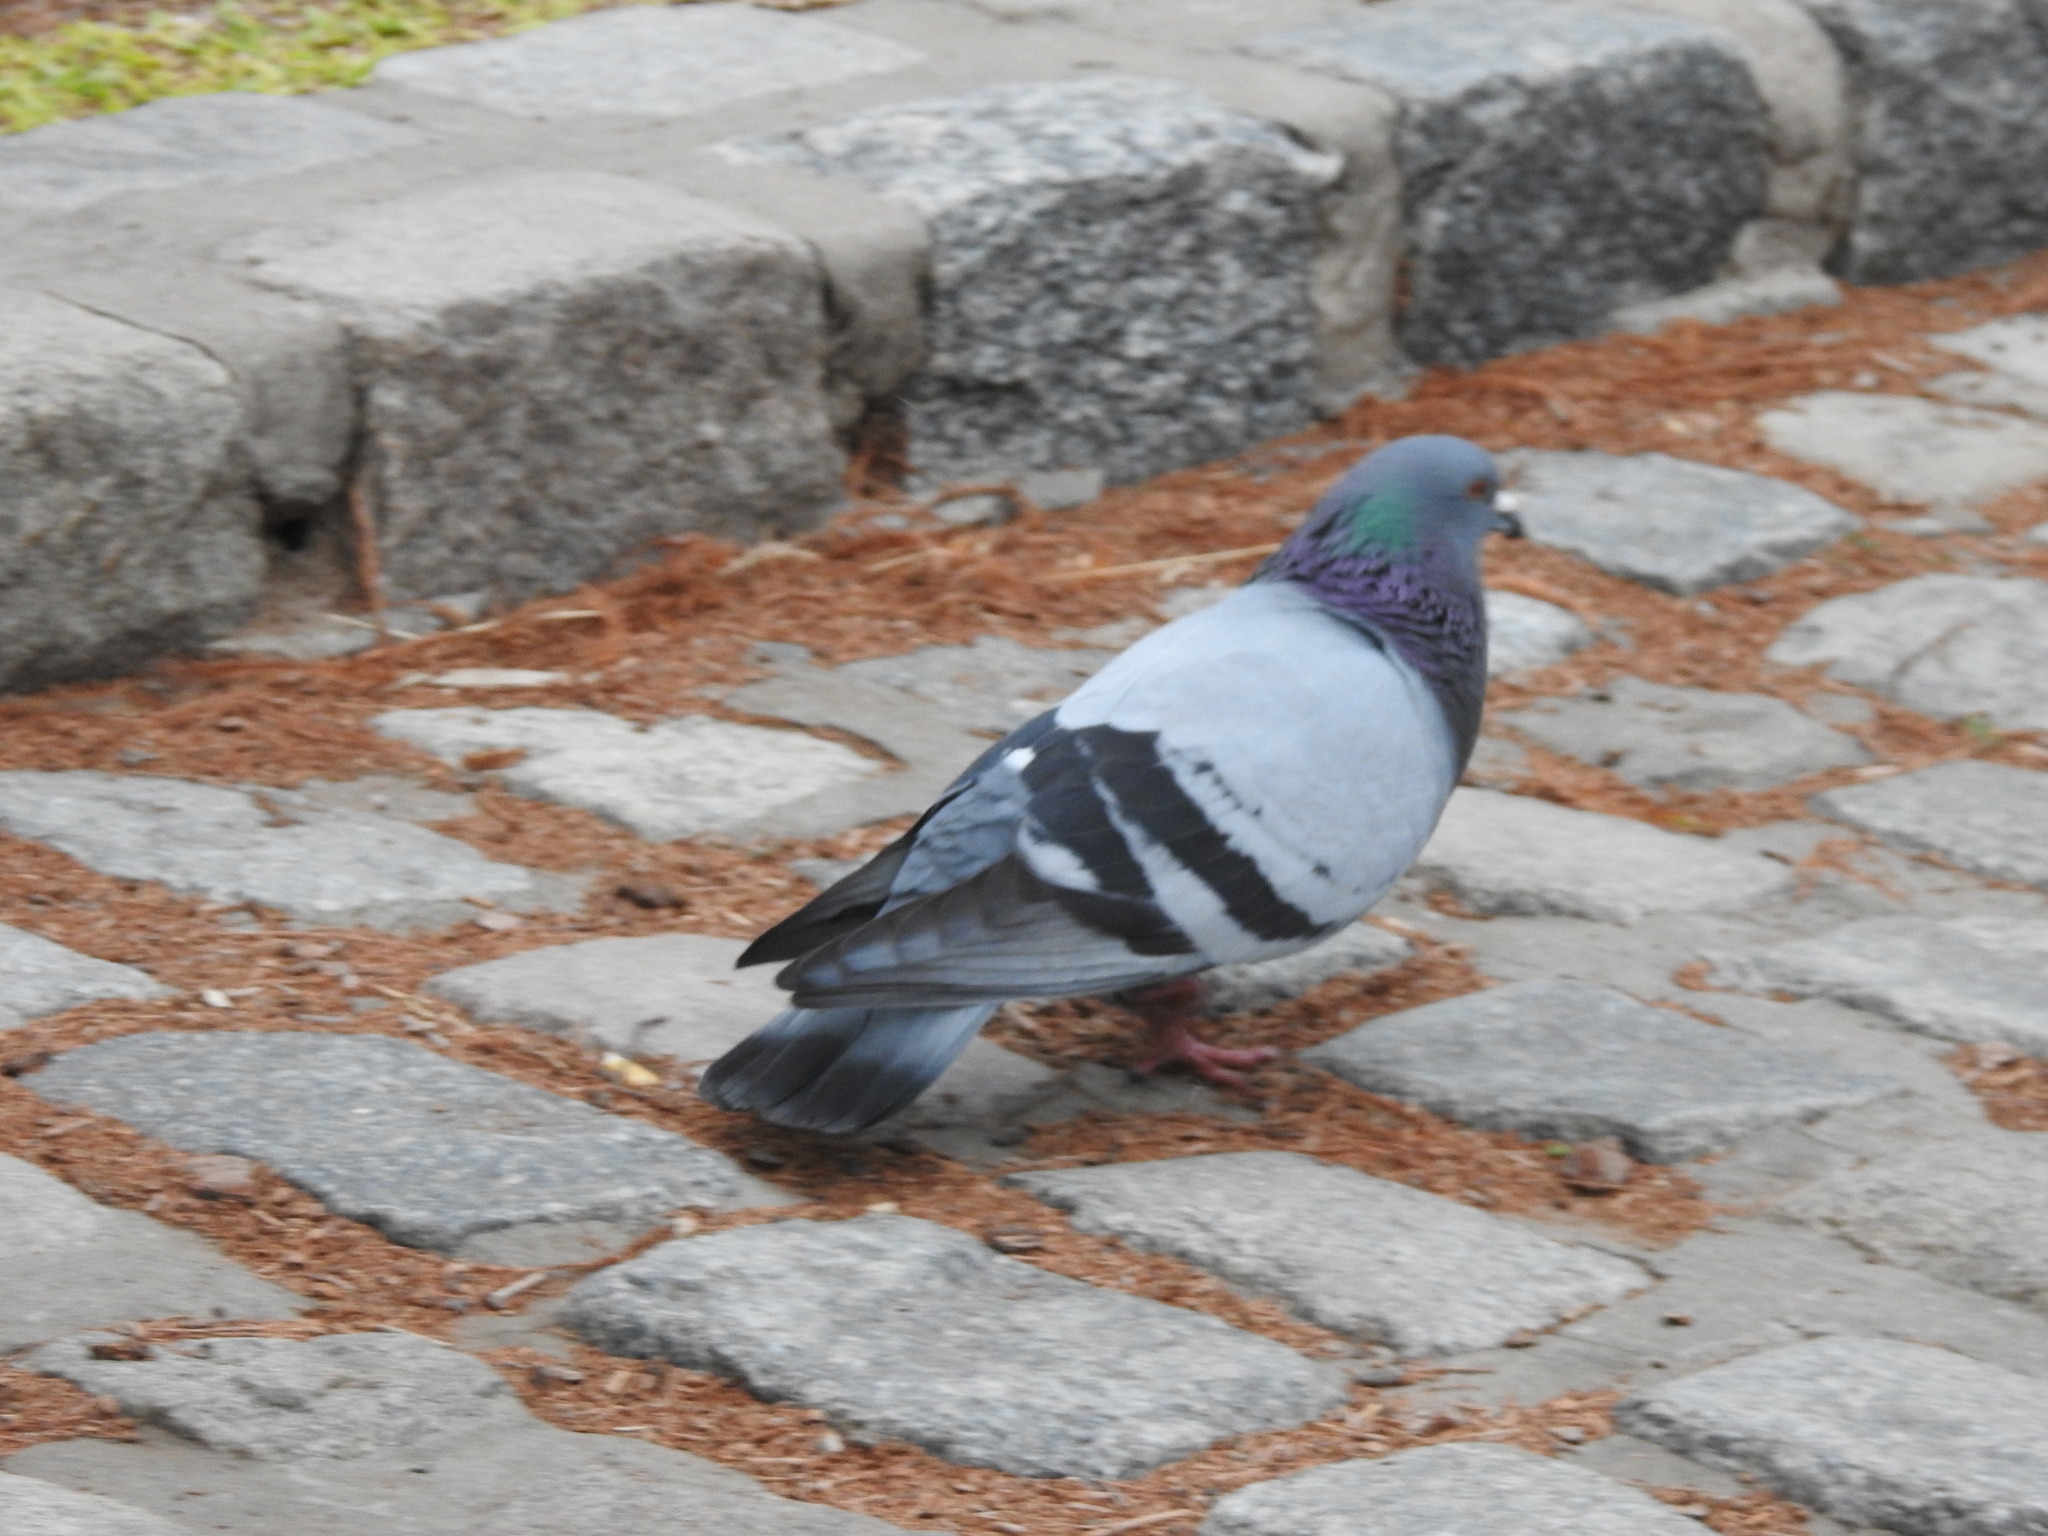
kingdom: Animalia
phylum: Chordata
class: Aves
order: Columbiformes
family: Columbidae
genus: Columba
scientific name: Columba livia
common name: Rock pigeon
